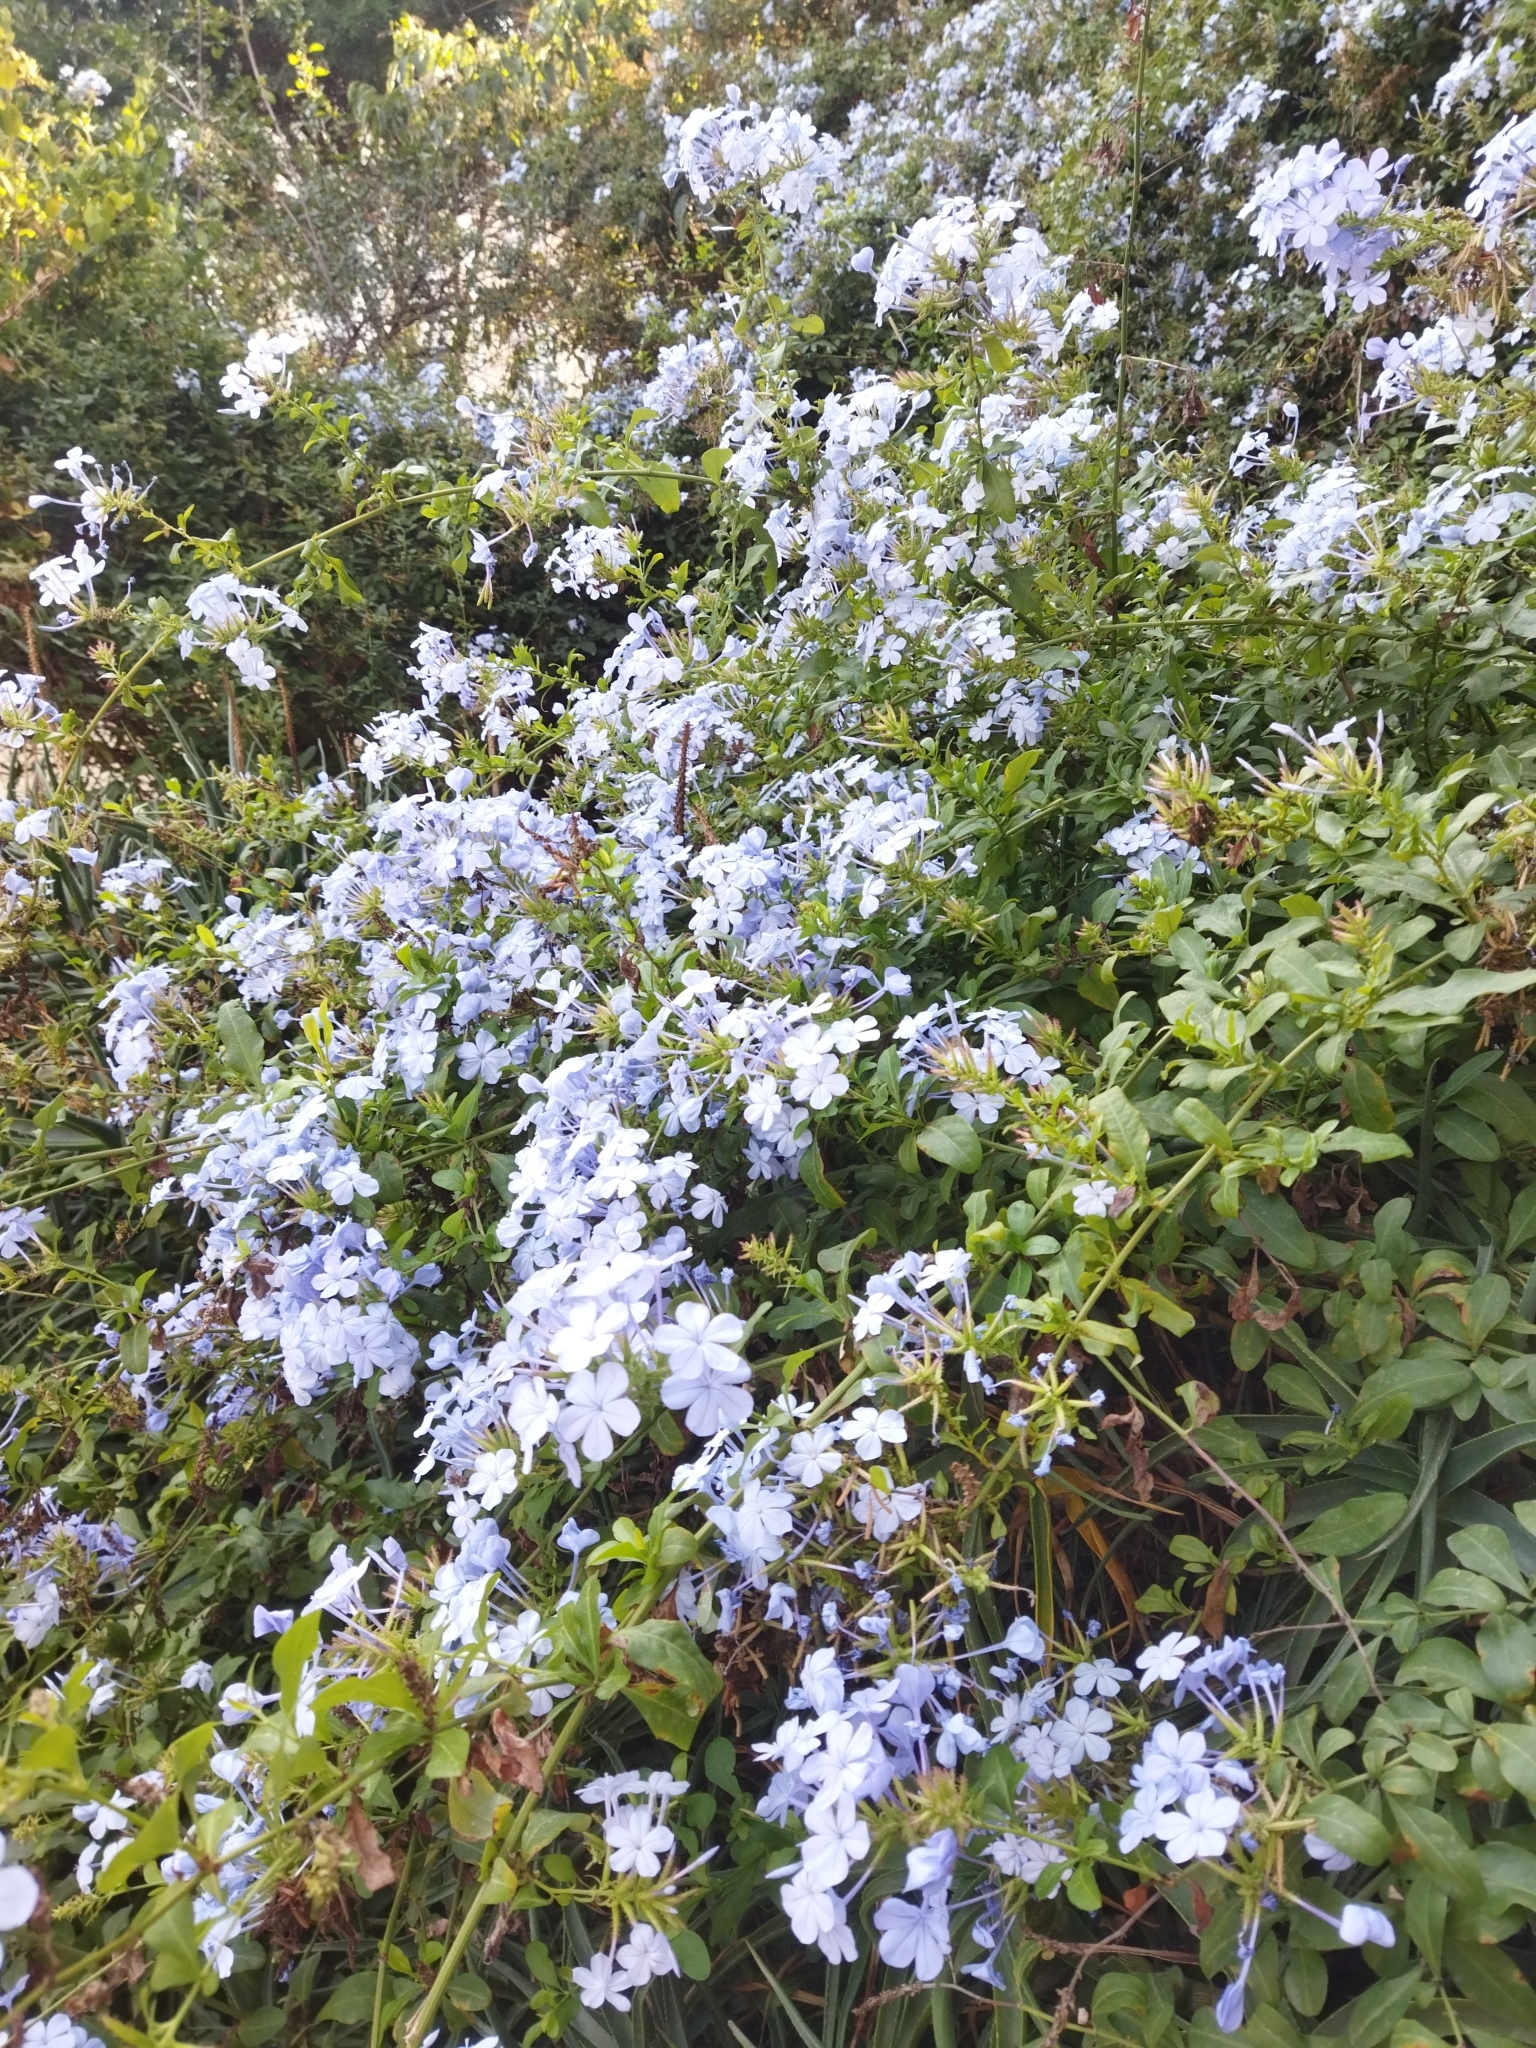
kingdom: Plantae
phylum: Tracheophyta
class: Magnoliopsida
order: Caryophyllales
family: Plumbaginaceae
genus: Plumbago
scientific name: Plumbago auriculata
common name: Cape leadwort
